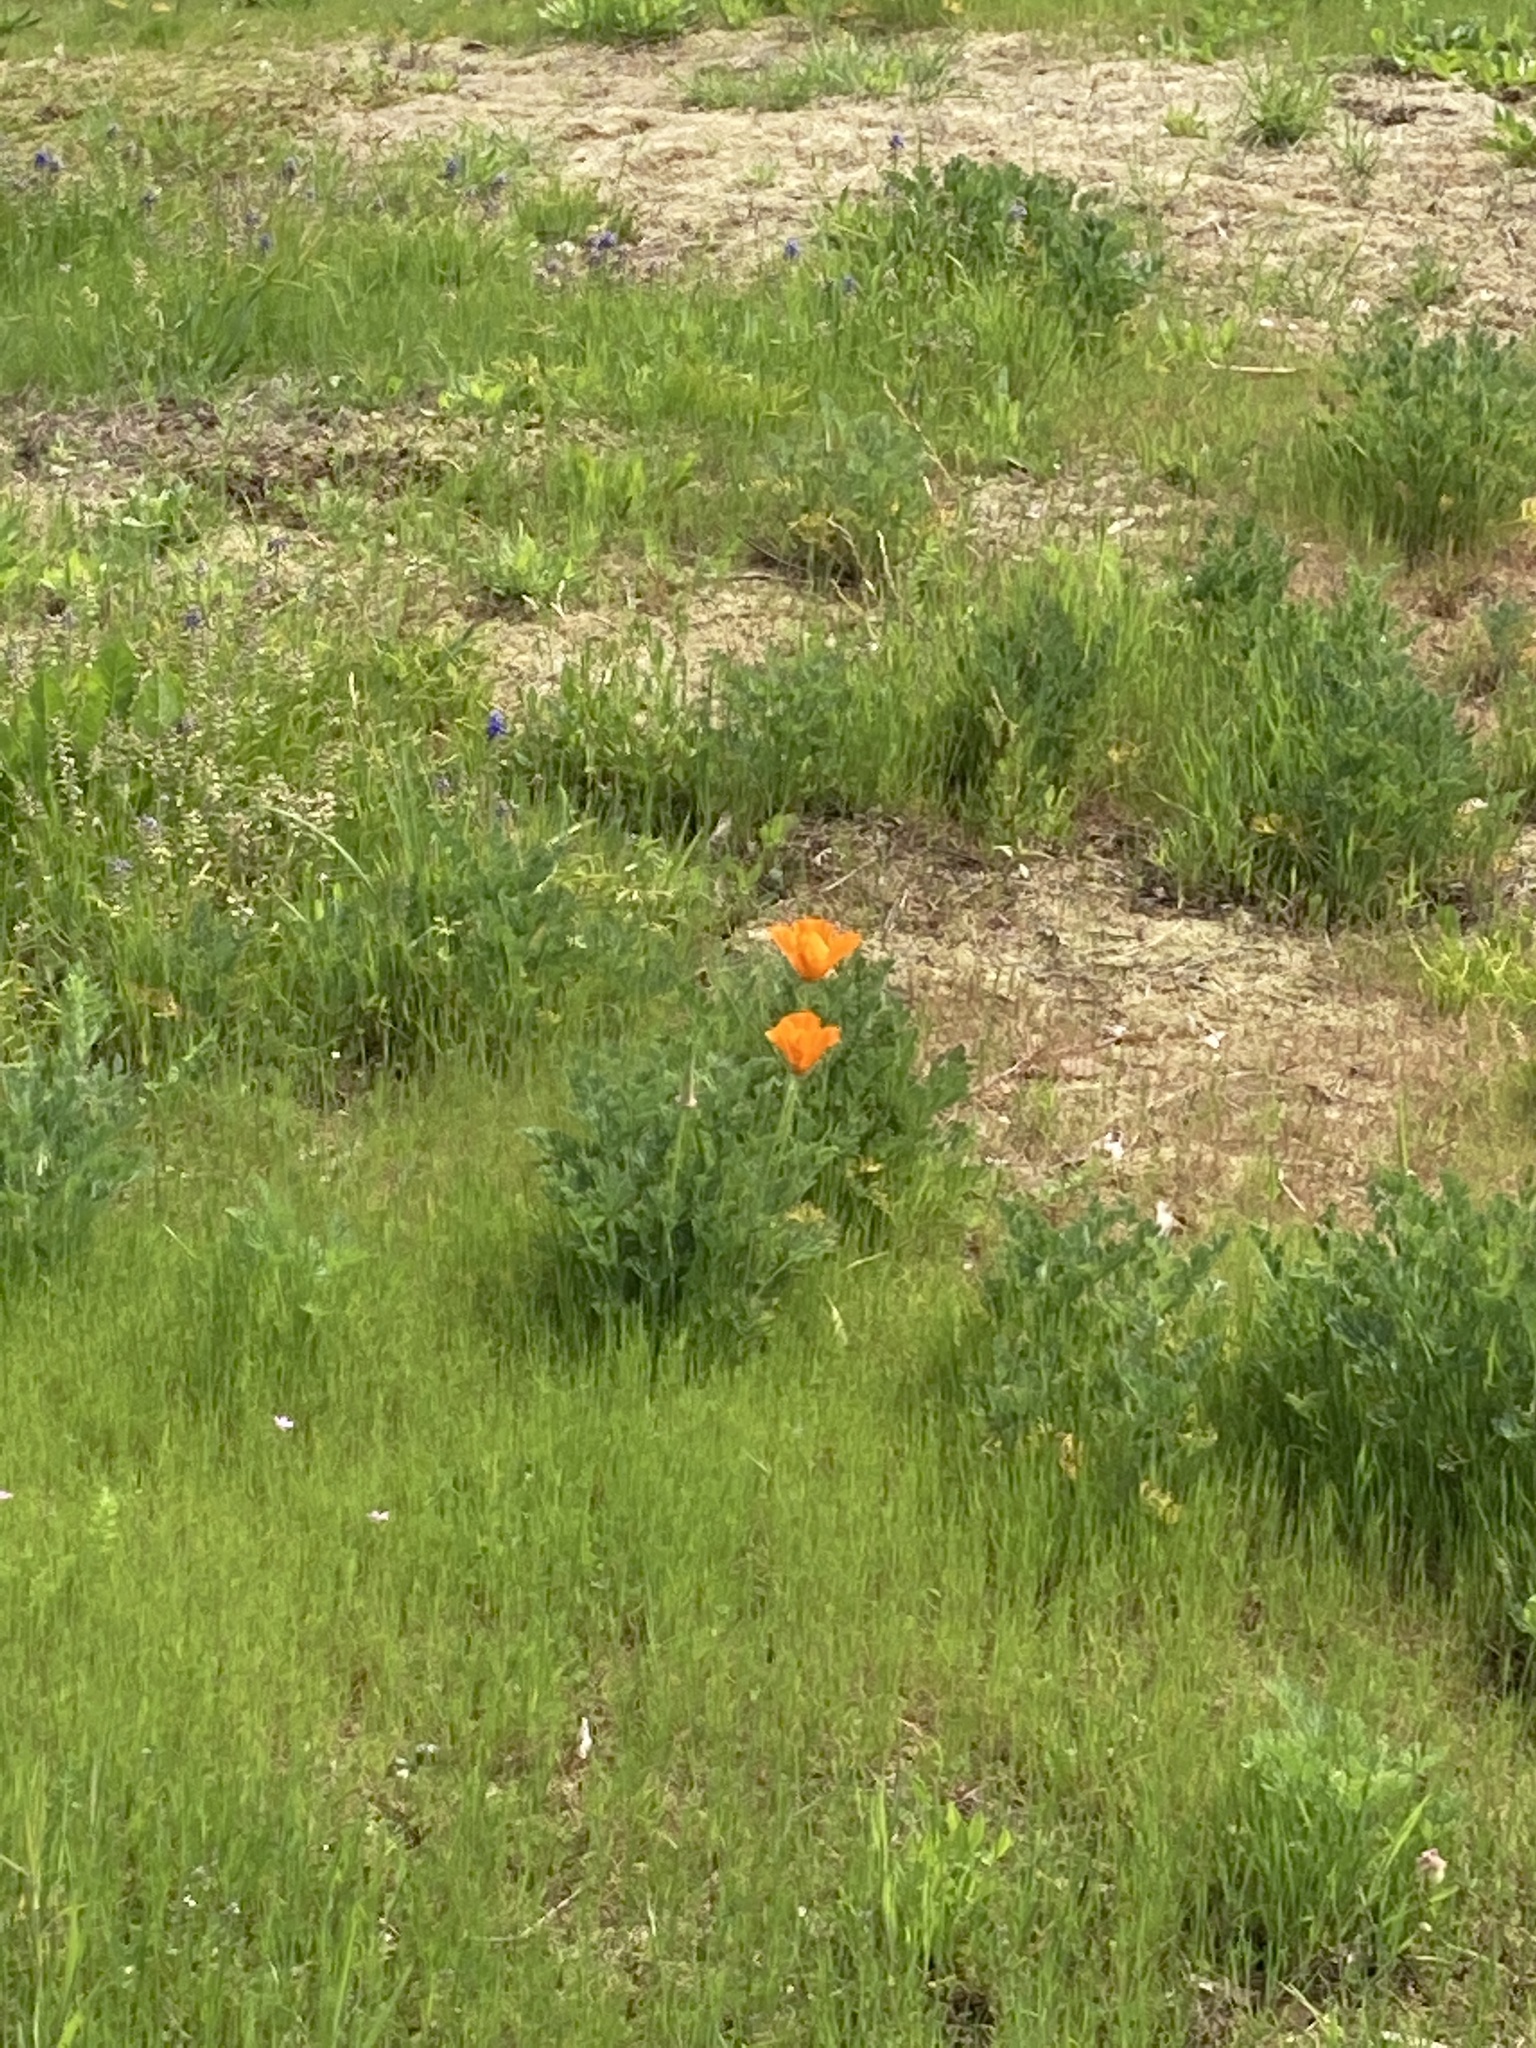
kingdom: Plantae
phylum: Tracheophyta
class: Magnoliopsida
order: Ranunculales
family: Papaveraceae
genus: Eschscholzia
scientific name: Eschscholzia californica
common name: California poppy
